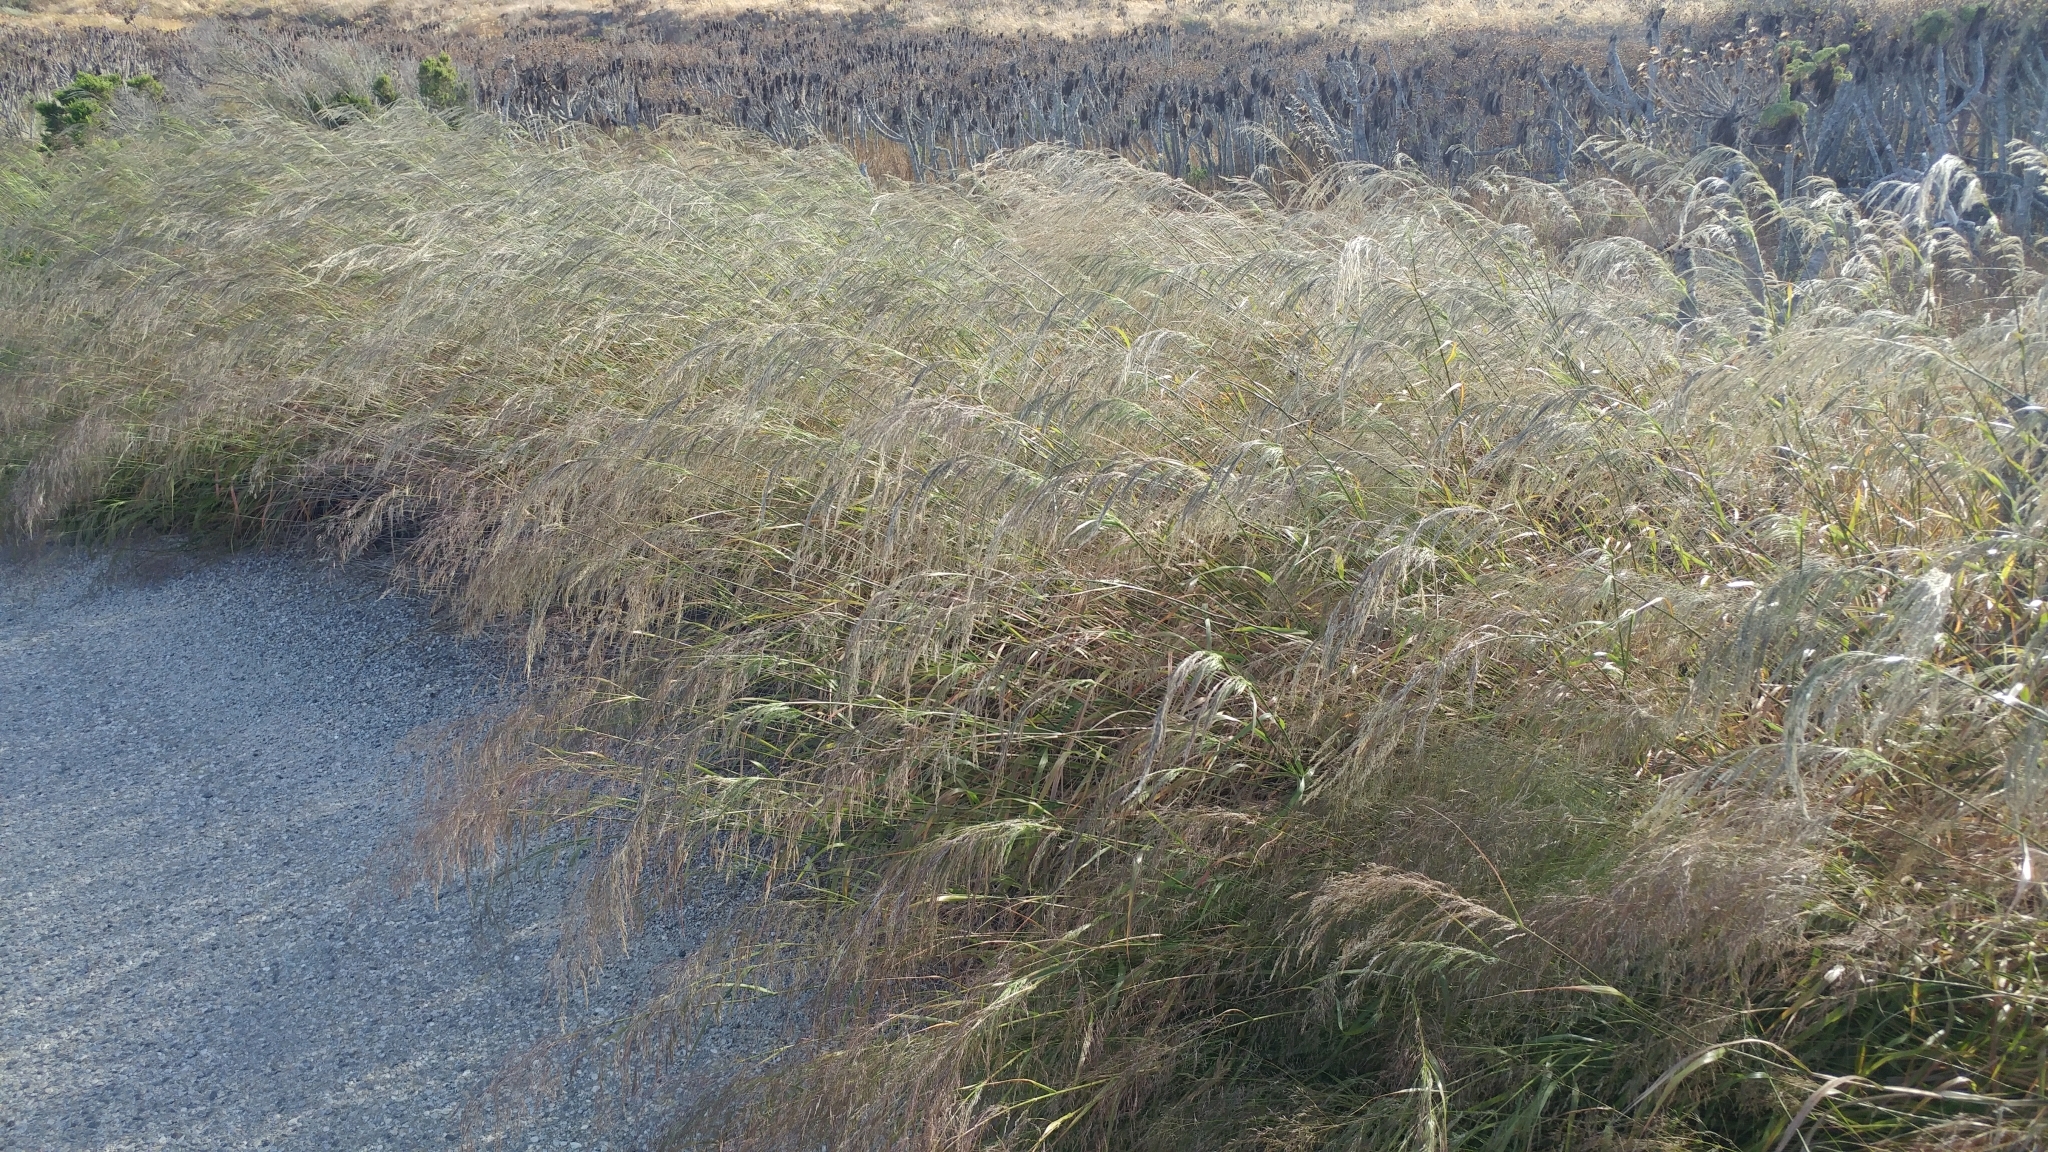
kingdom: Plantae
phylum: Tracheophyta
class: Liliopsida
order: Poales
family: Poaceae
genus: Oloptum
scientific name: Oloptum miliaceum
